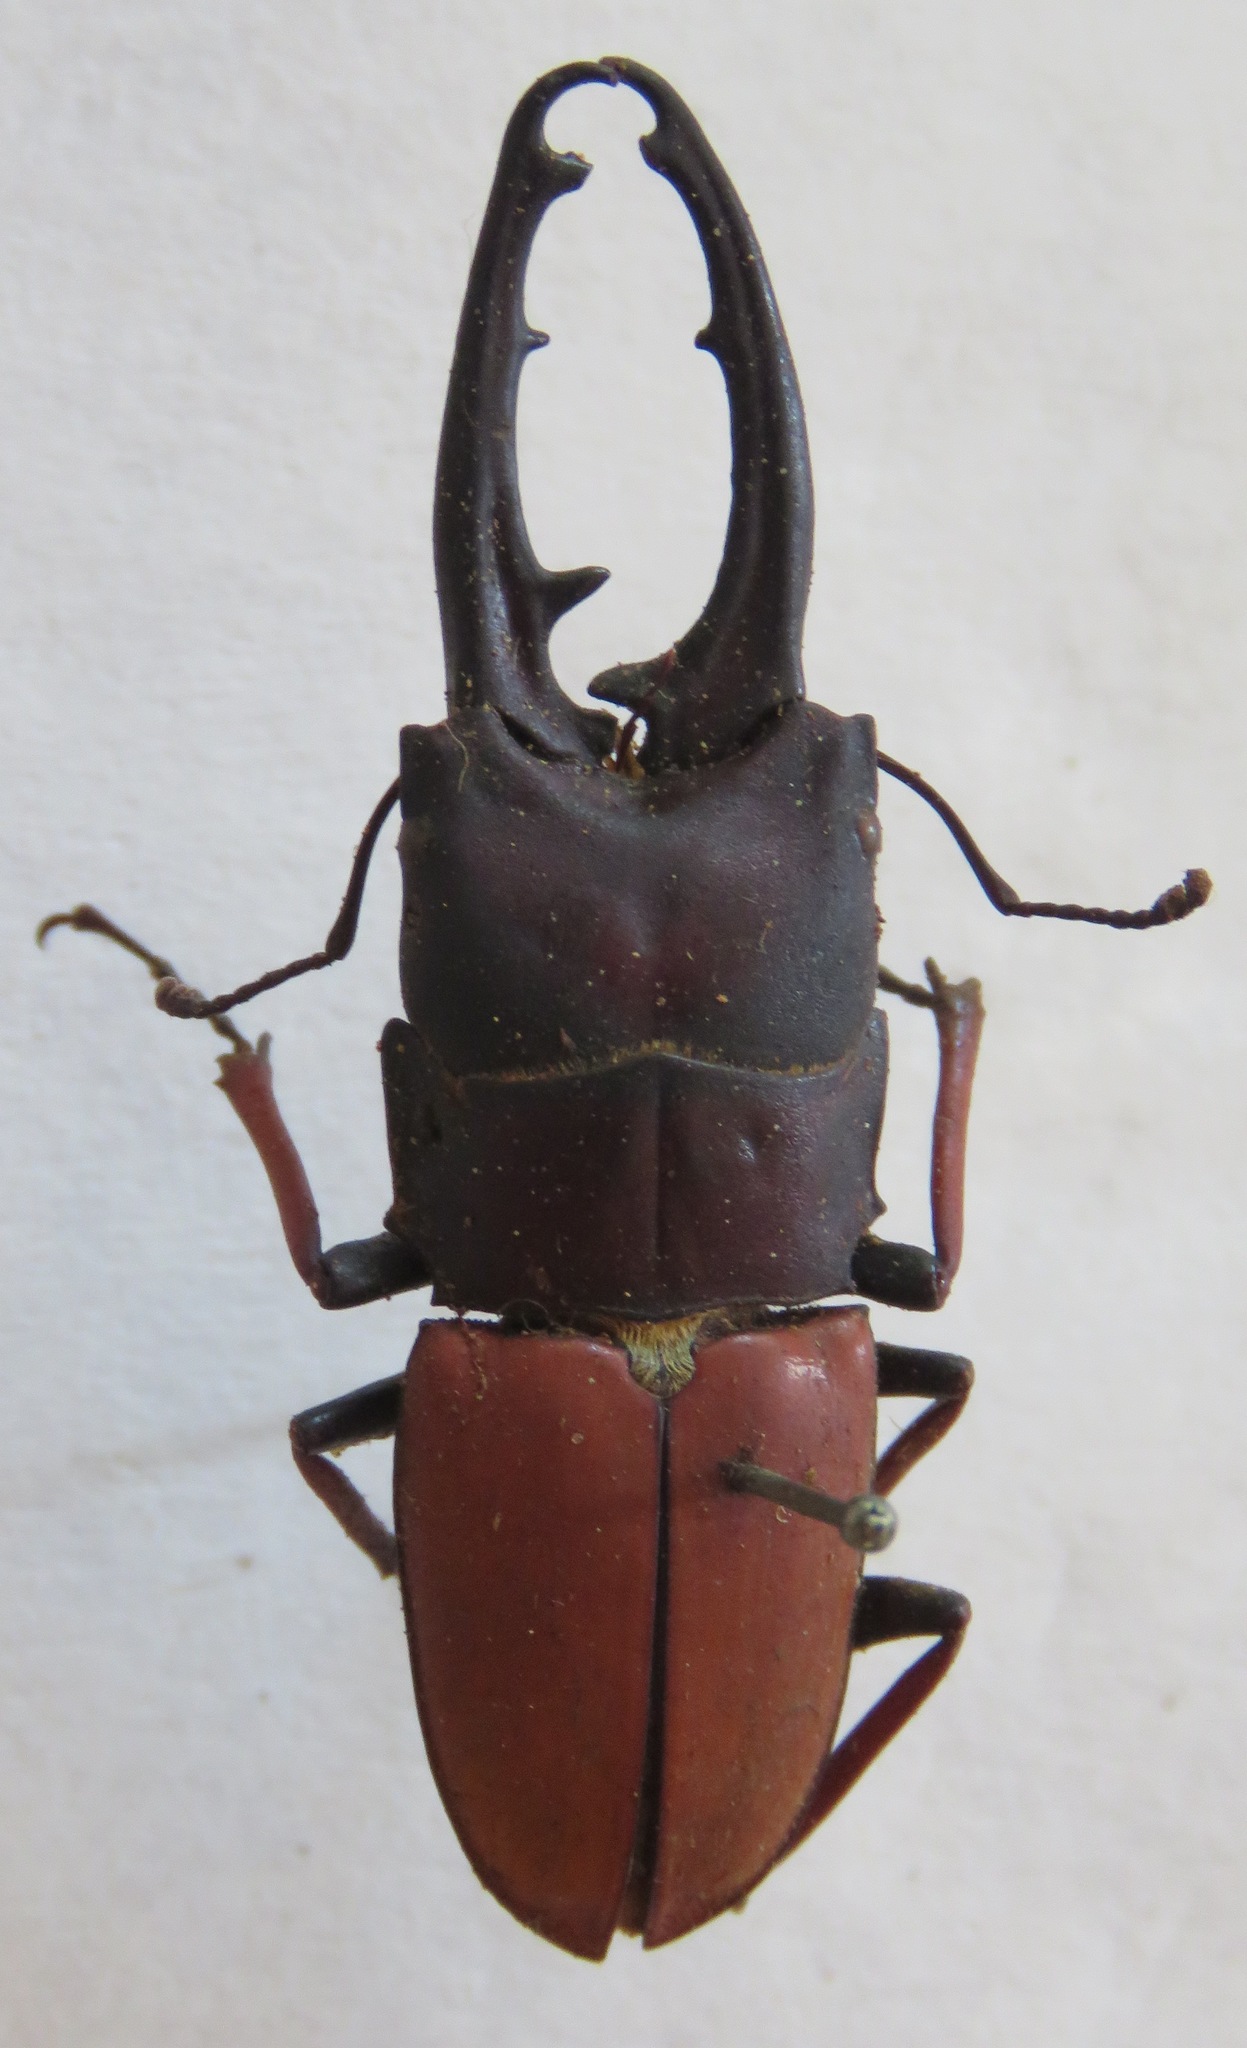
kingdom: Animalia
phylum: Arthropoda
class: Insecta
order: Coleoptera
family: Lucanidae
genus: Leptinopterus
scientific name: Leptinopterus tibialis
